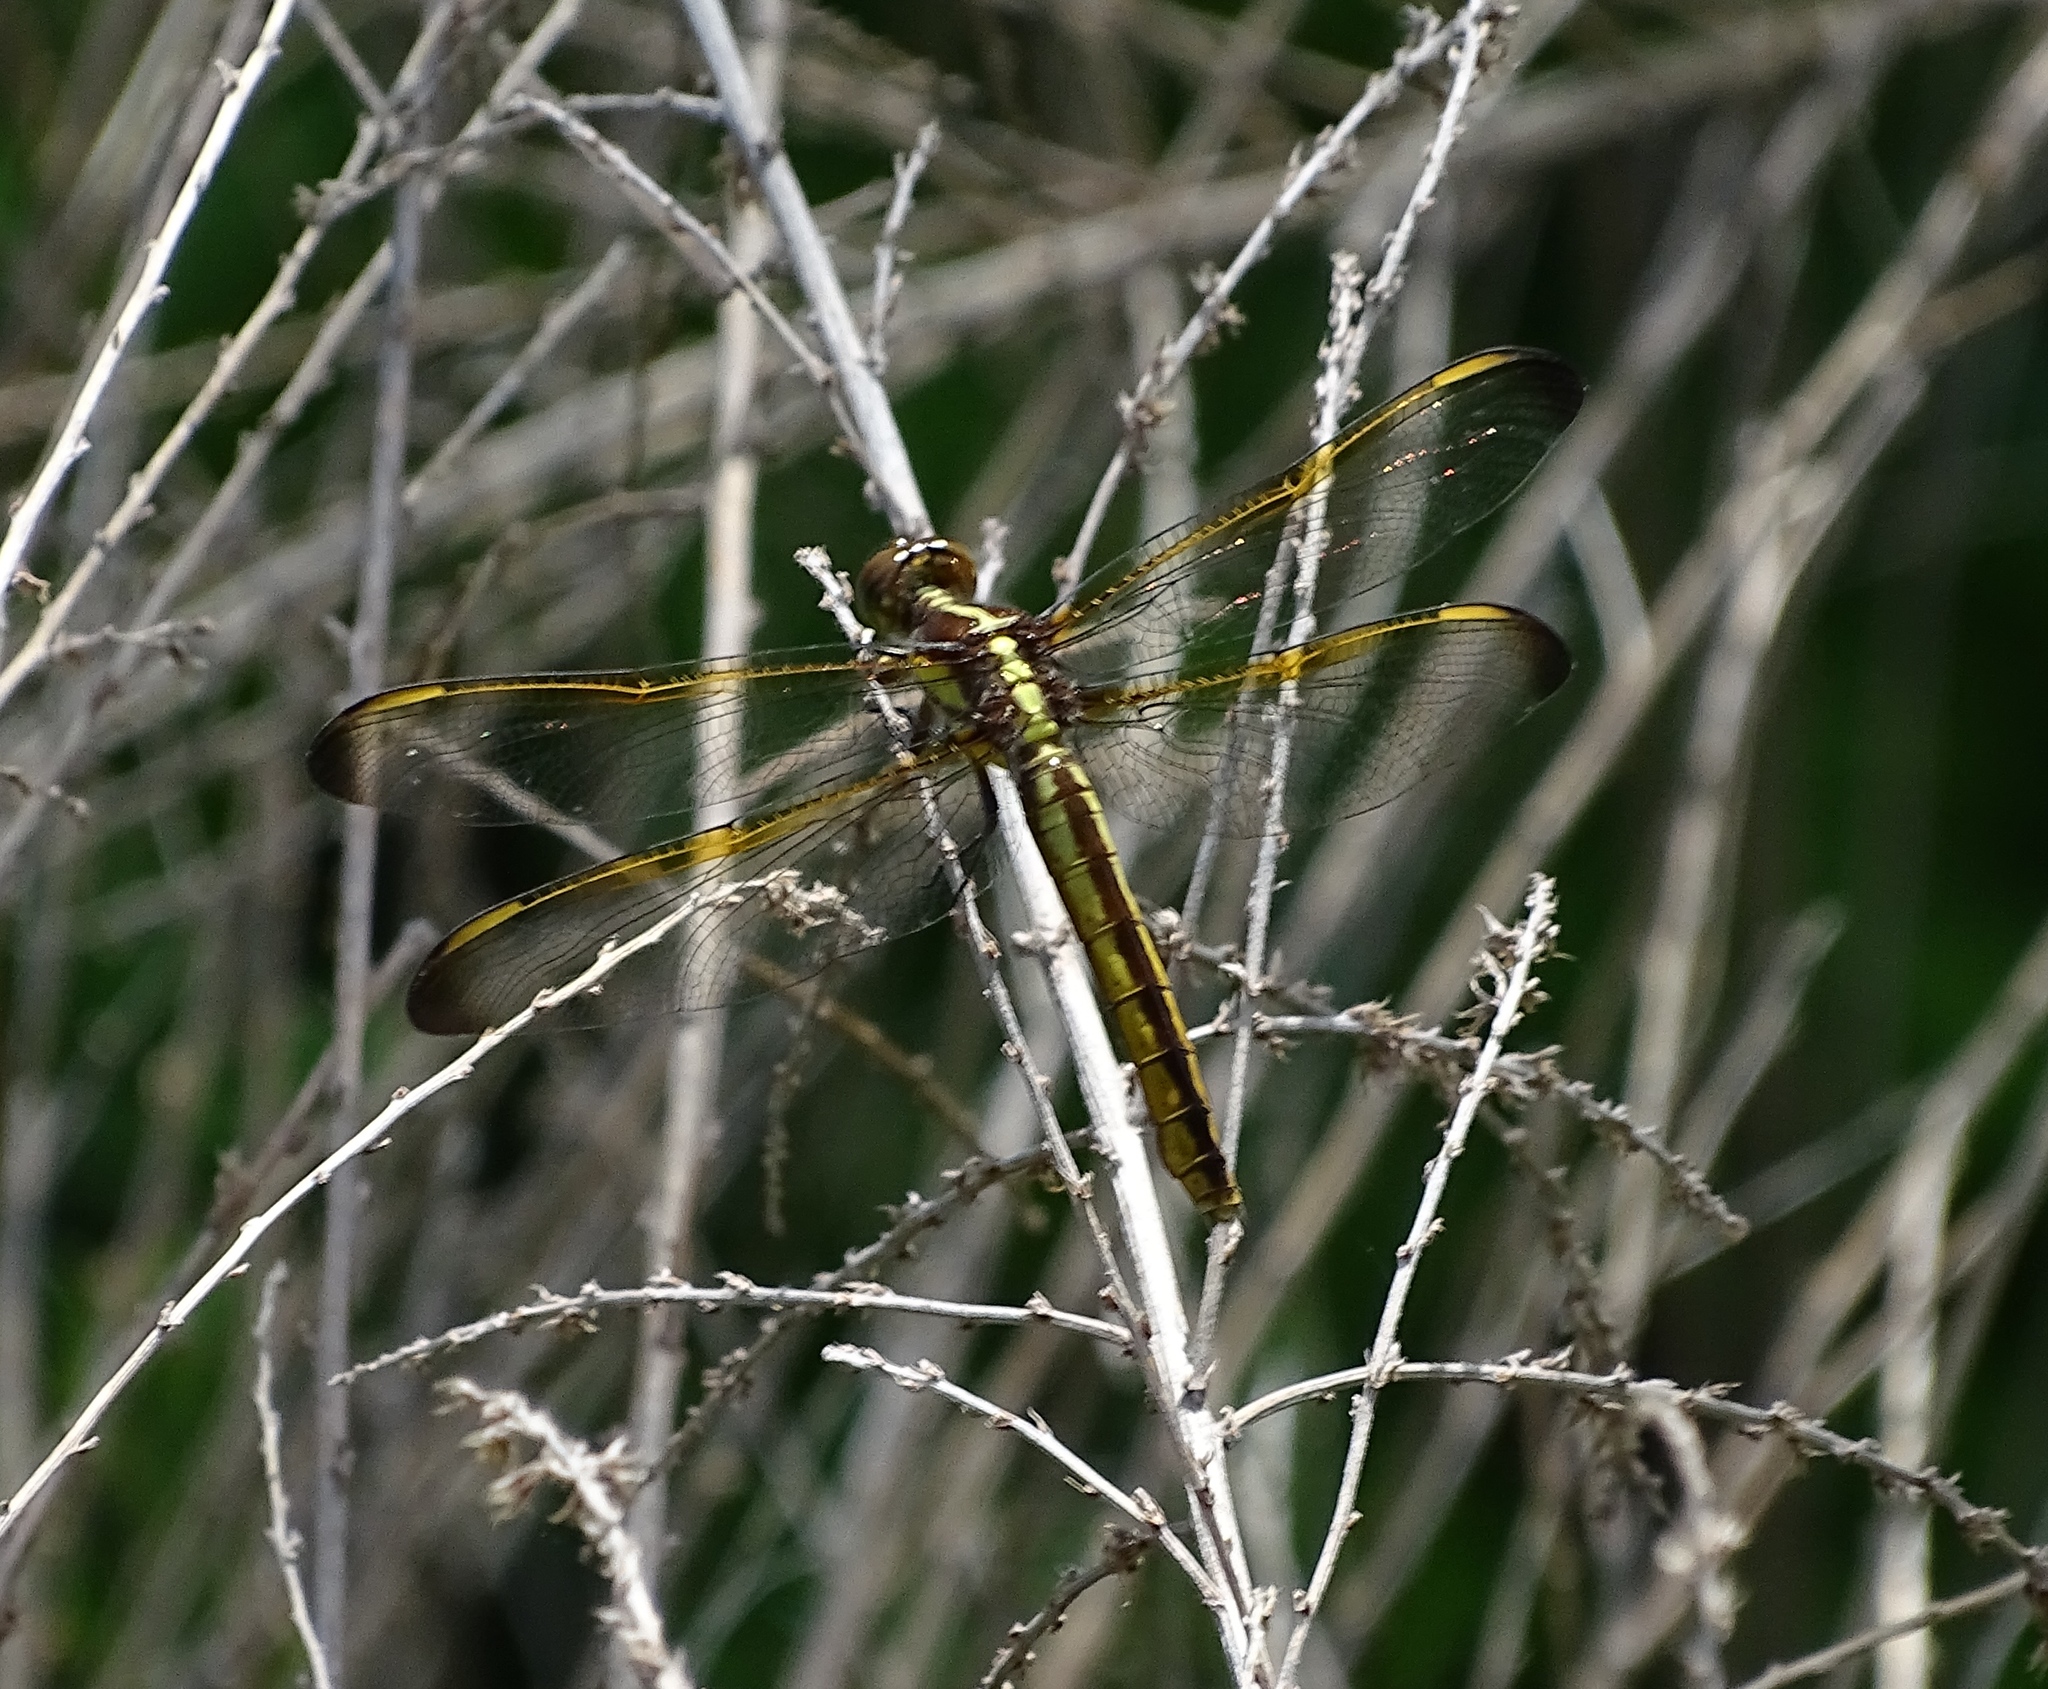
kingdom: Animalia
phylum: Arthropoda
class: Insecta
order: Odonata
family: Libellulidae
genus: Libellula
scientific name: Libellula flavida
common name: Yellow-sided skimmer
